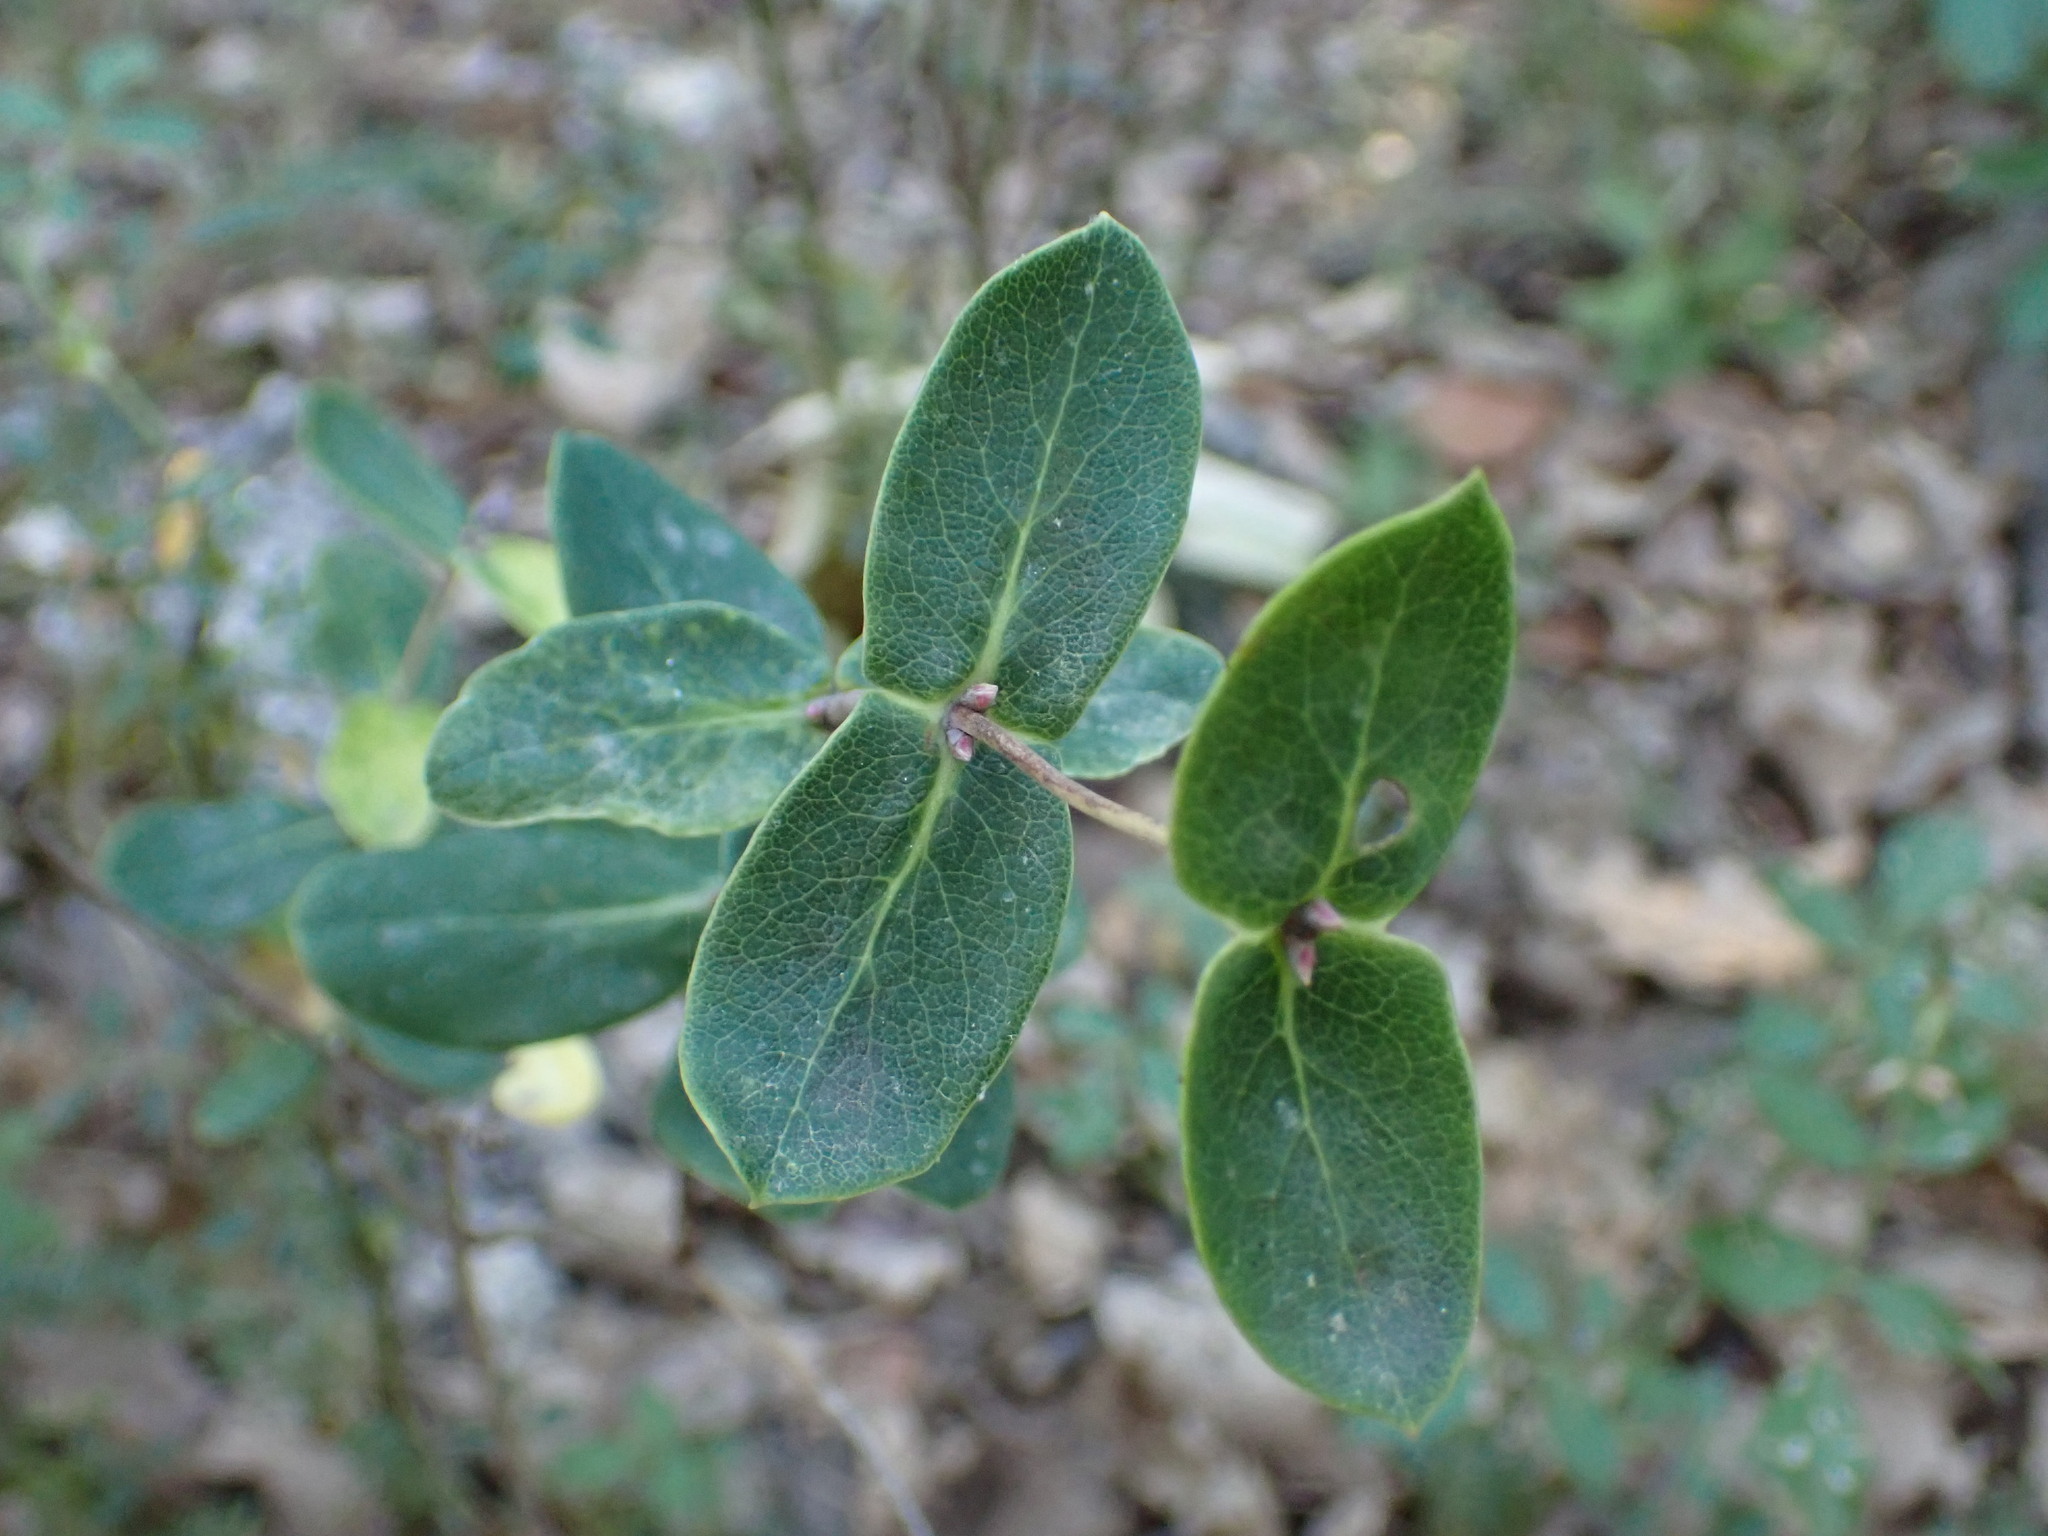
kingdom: Plantae
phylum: Tracheophyta
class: Magnoliopsida
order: Dipsacales
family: Caprifoliaceae
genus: Lonicera
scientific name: Lonicera implexa
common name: Minorca honeysuckle
